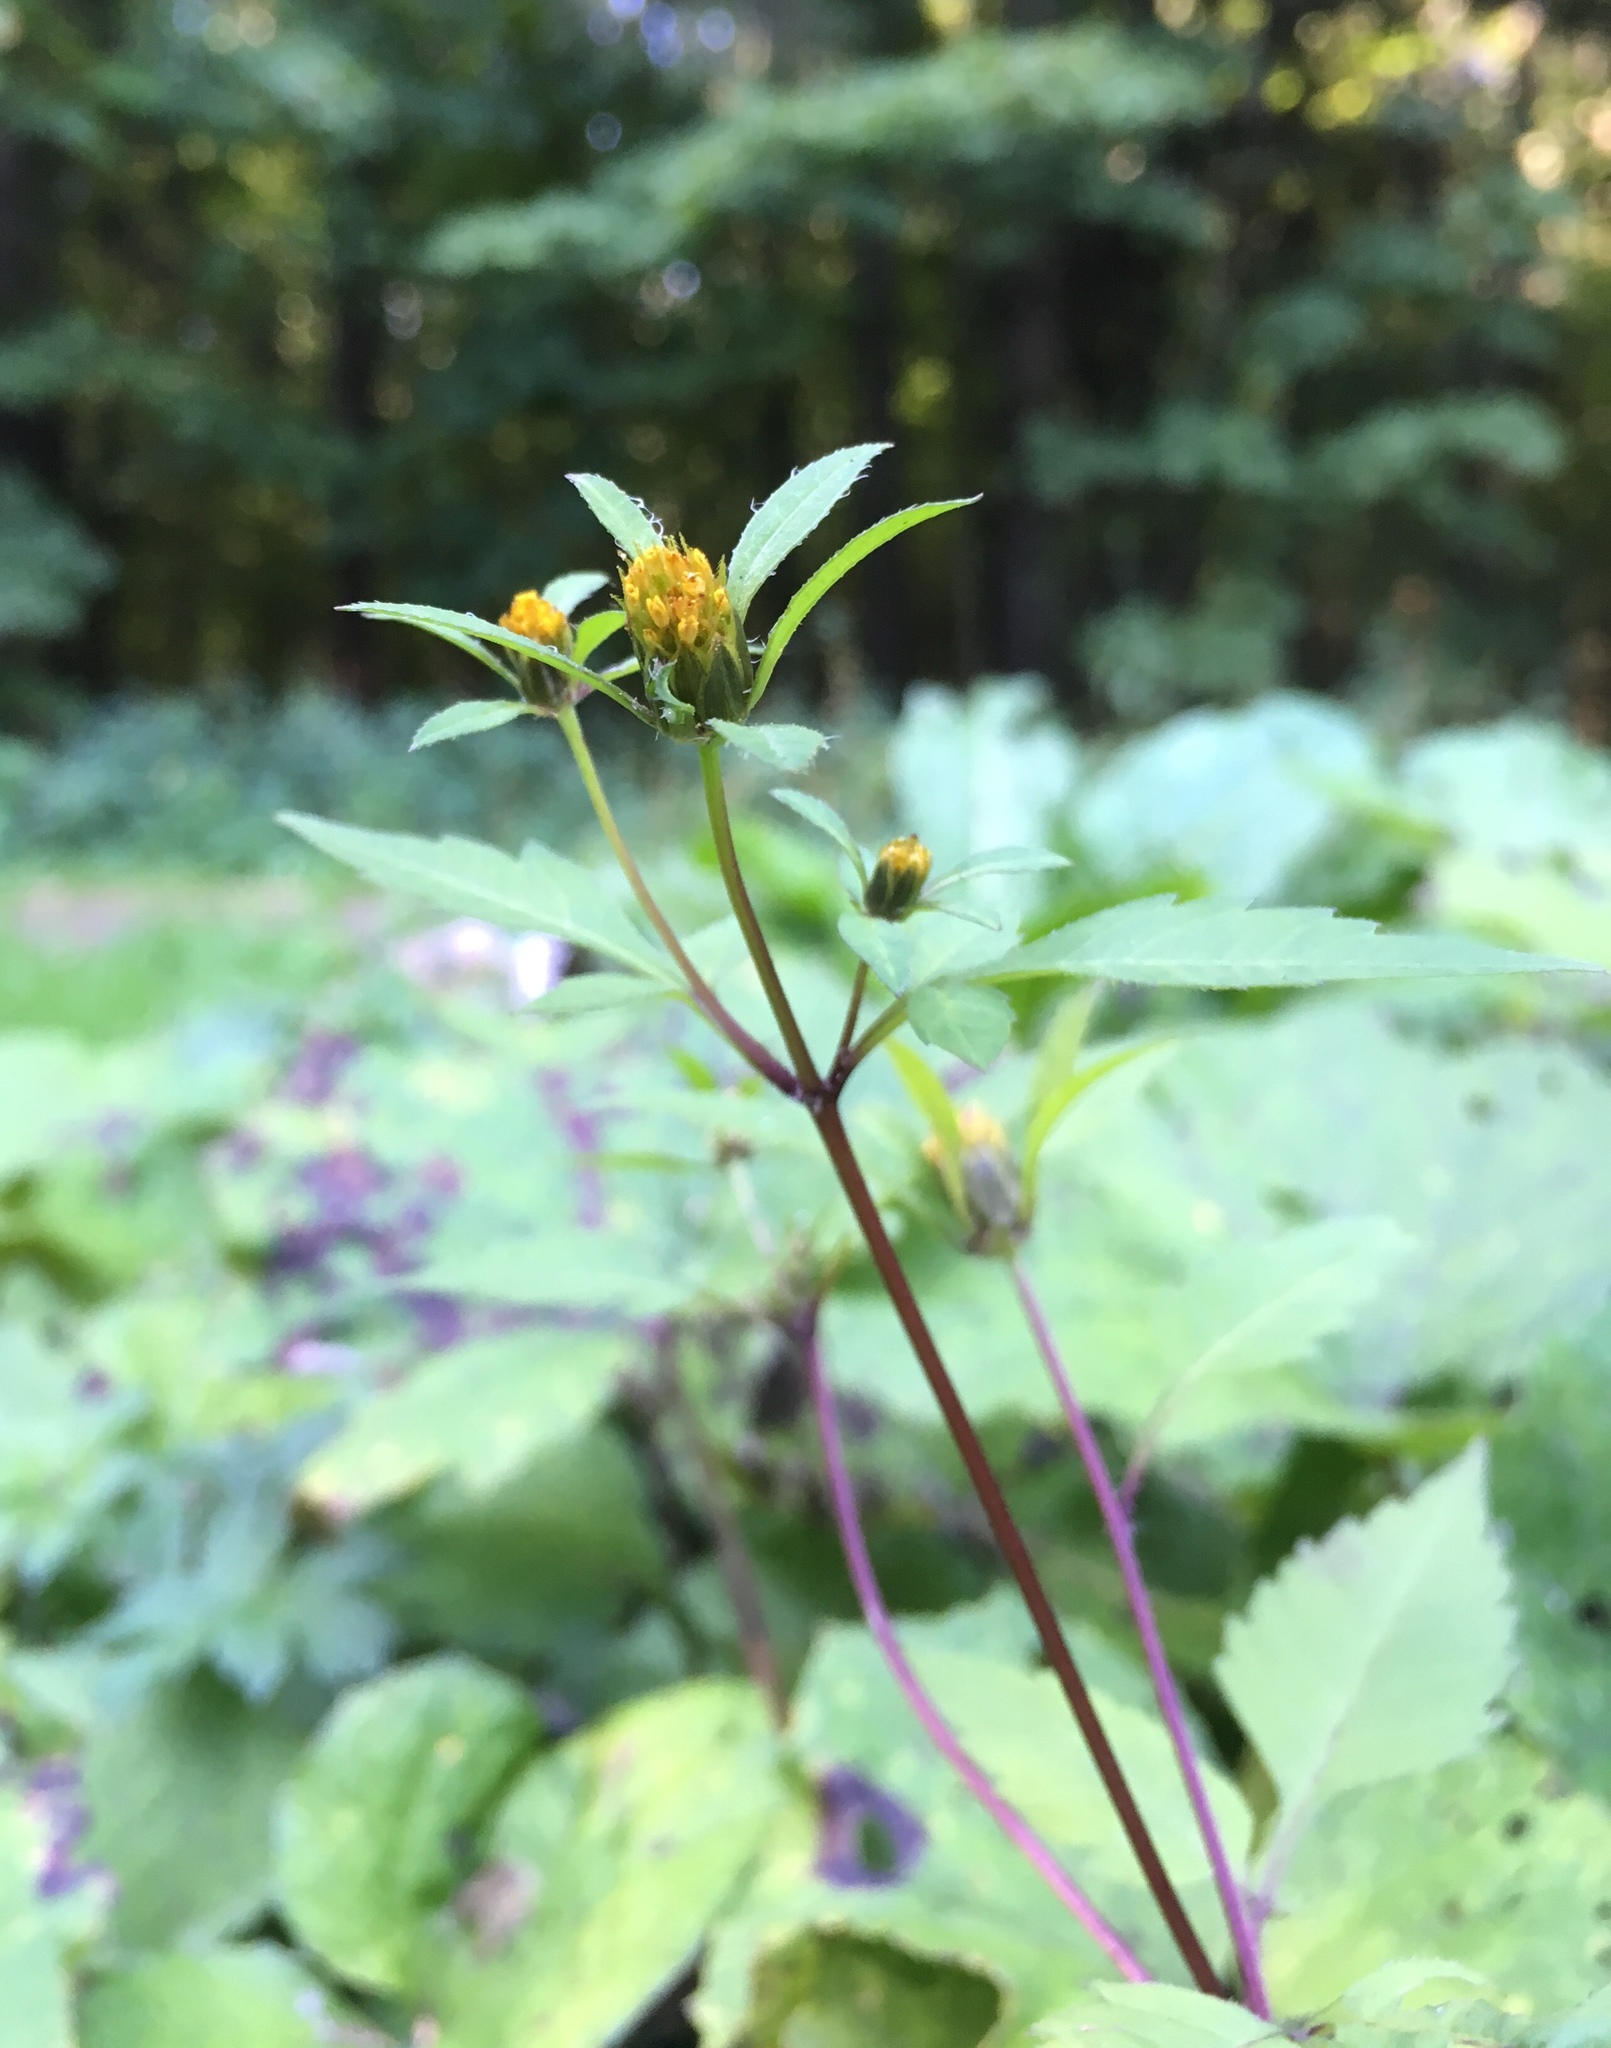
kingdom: Plantae
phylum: Tracheophyta
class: Magnoliopsida
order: Asterales
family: Asteraceae
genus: Bidens
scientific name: Bidens frondosa
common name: Beggarticks
